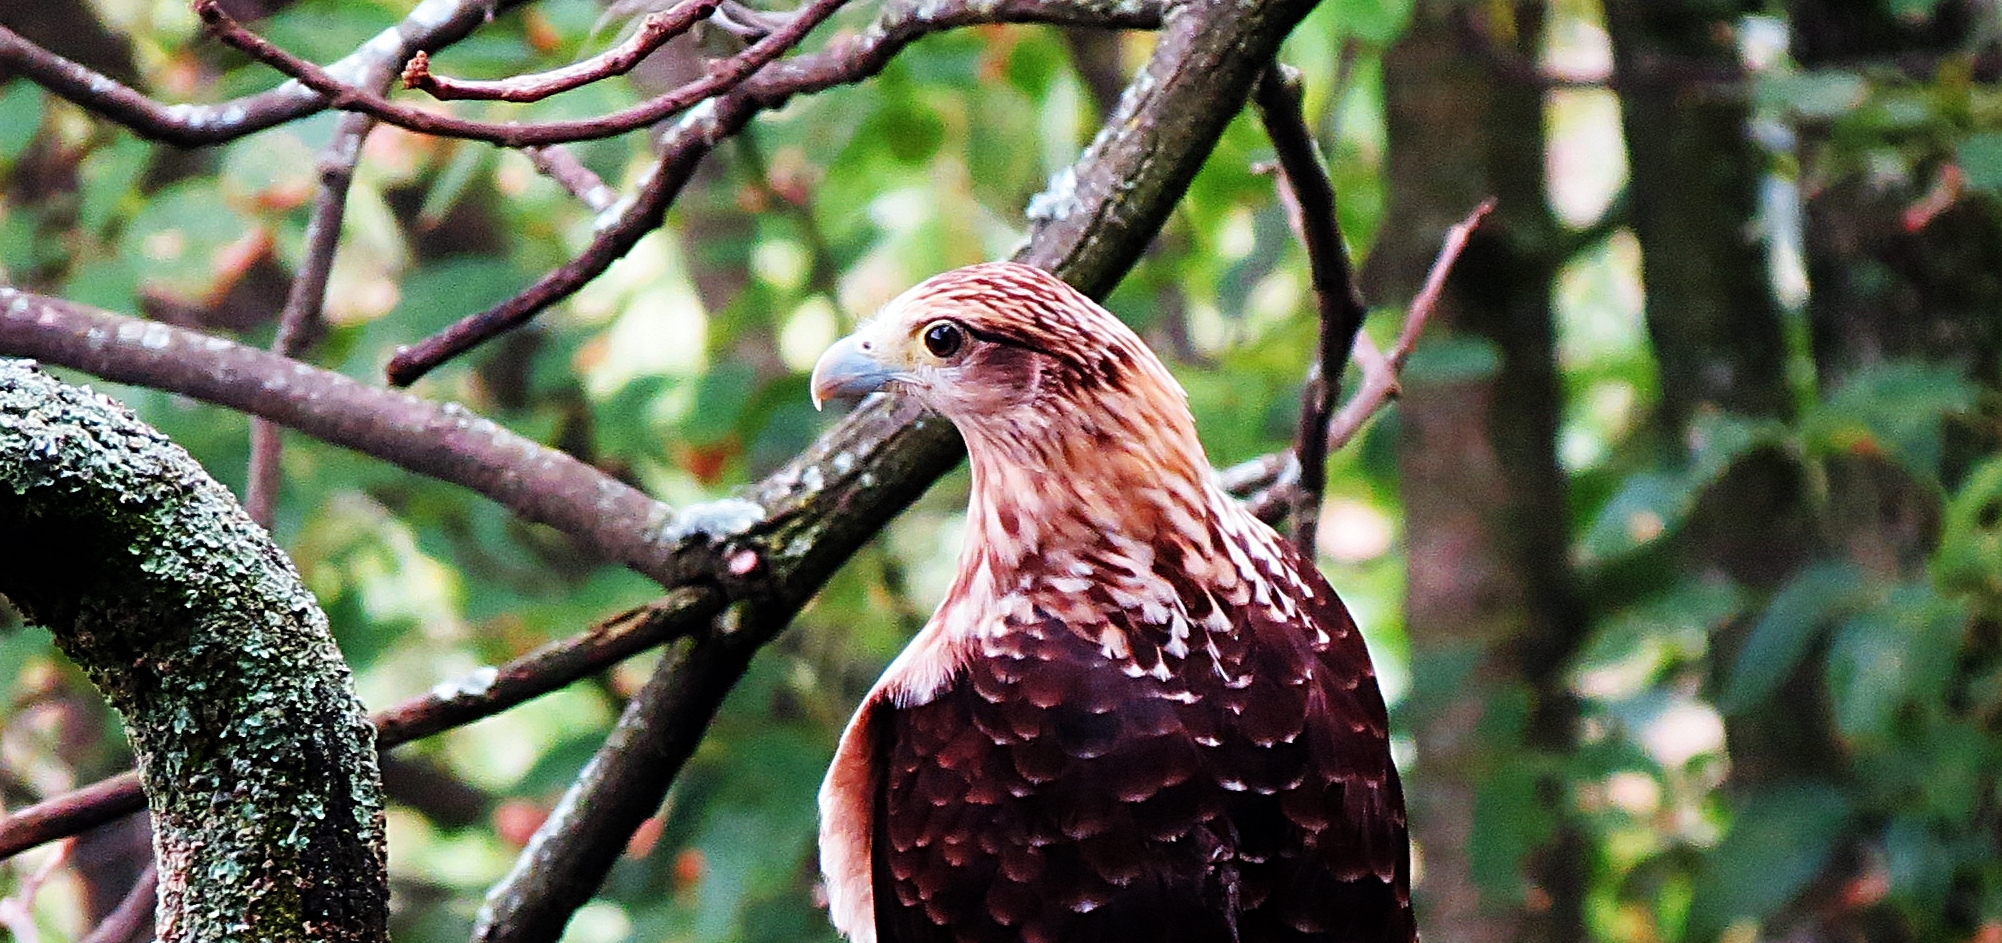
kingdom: Animalia
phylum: Chordata
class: Aves
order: Falconiformes
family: Falconidae
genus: Daptrius
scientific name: Daptrius
